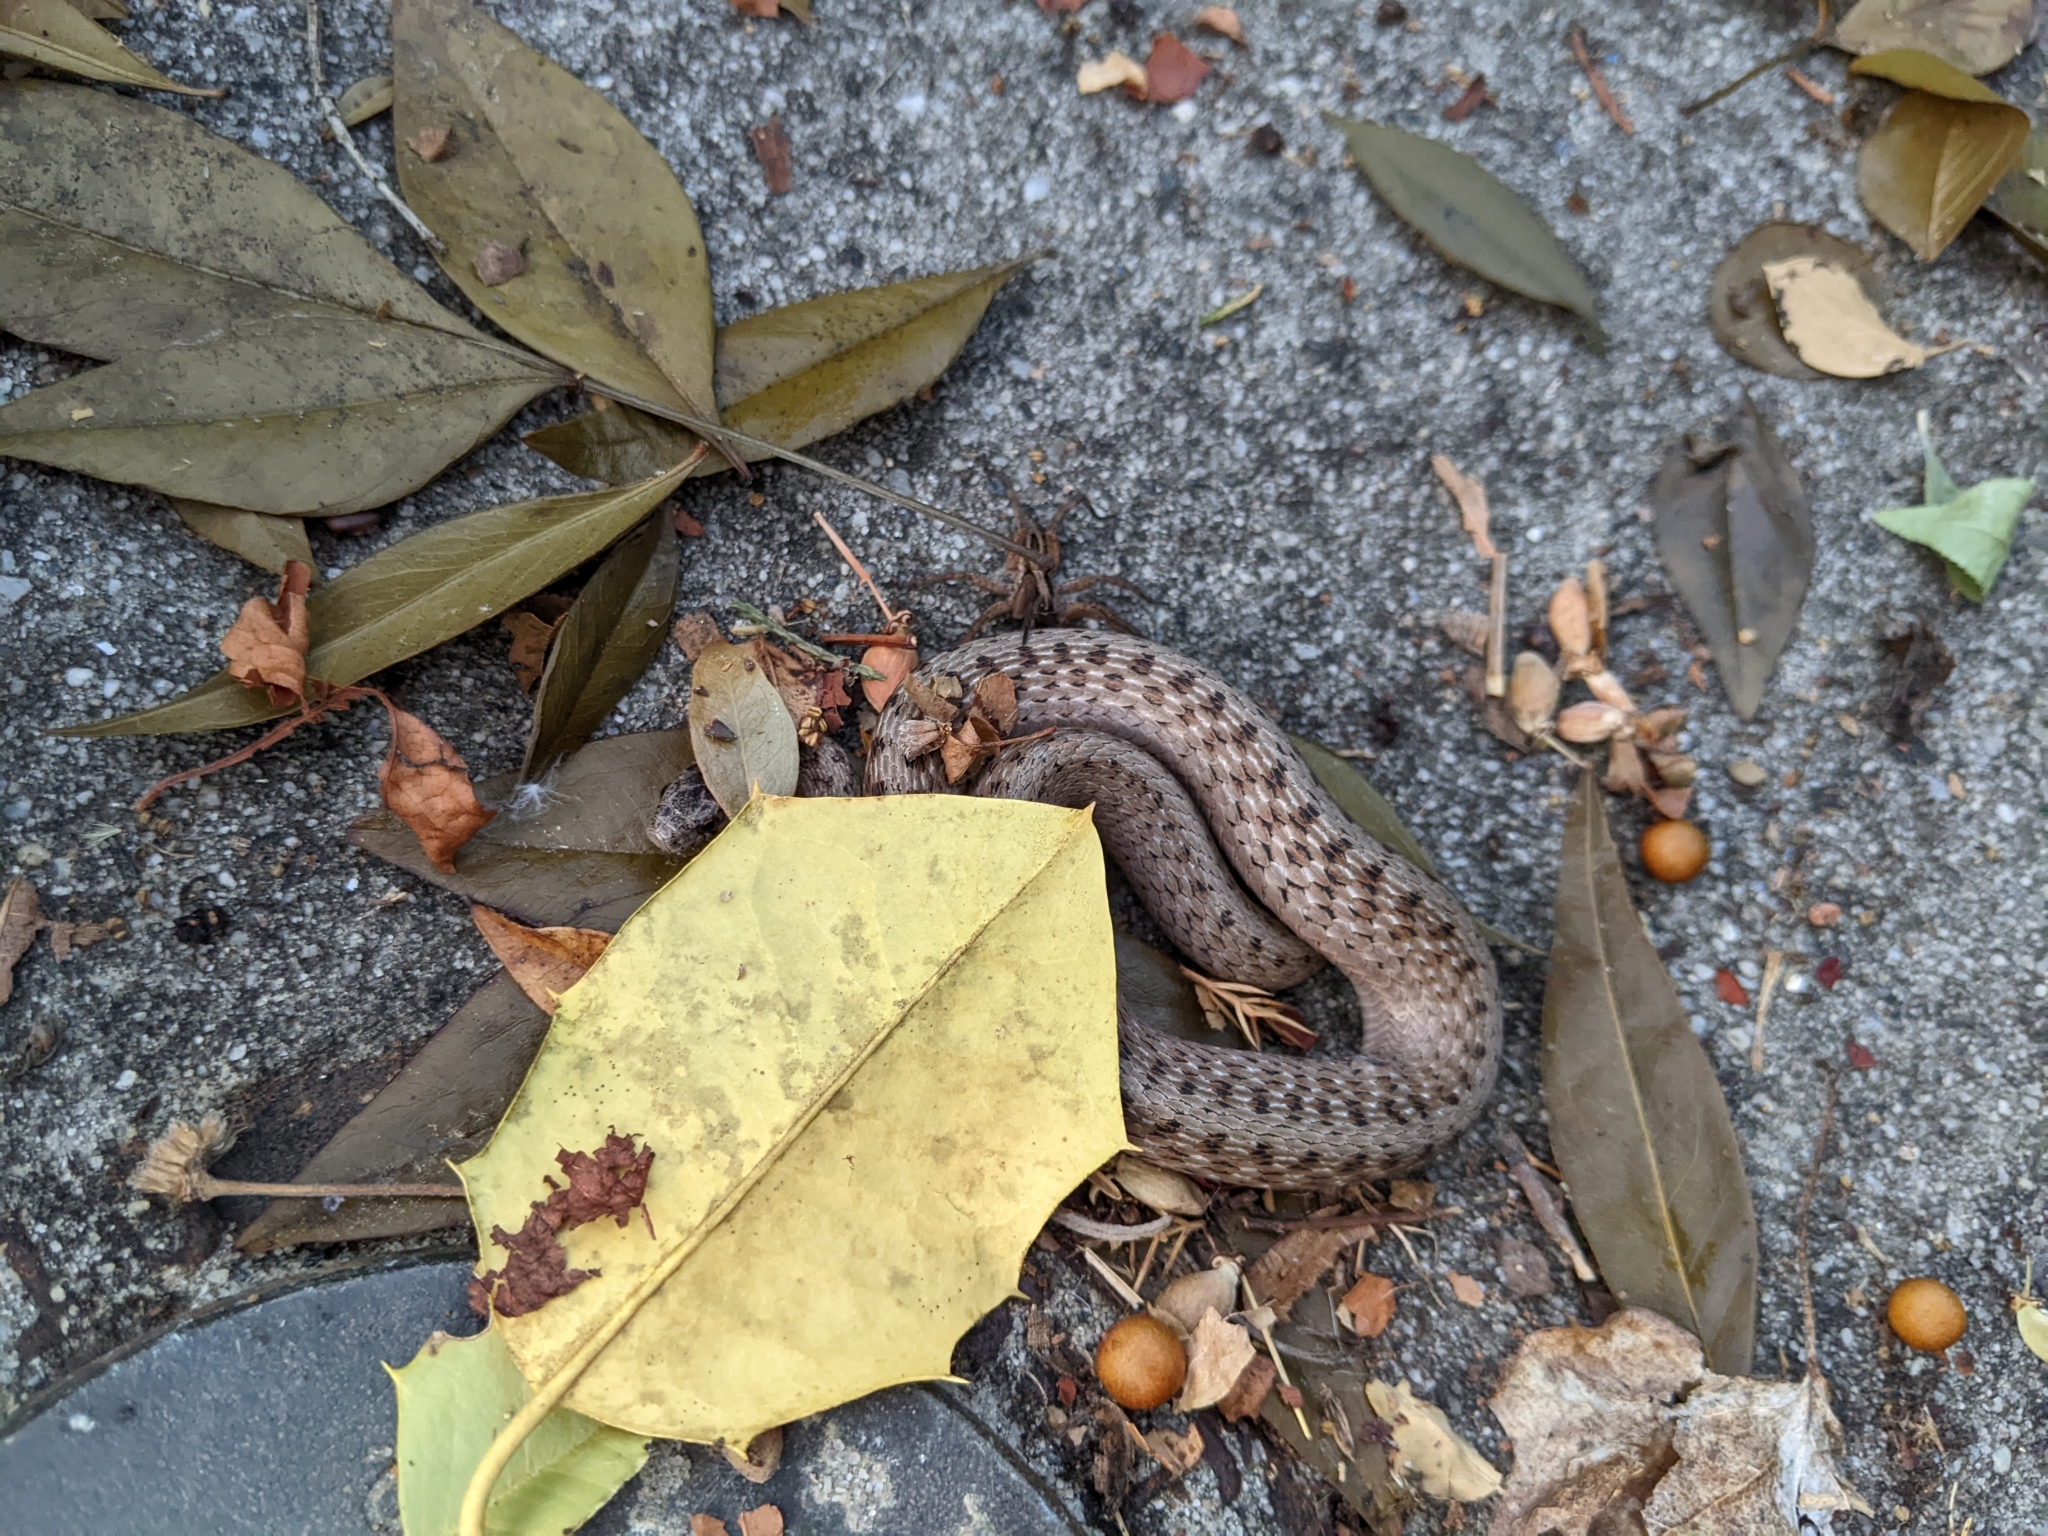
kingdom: Animalia
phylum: Chordata
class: Squamata
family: Colubridae
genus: Storeria
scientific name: Storeria dekayi
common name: (dekay’s) brown snake
